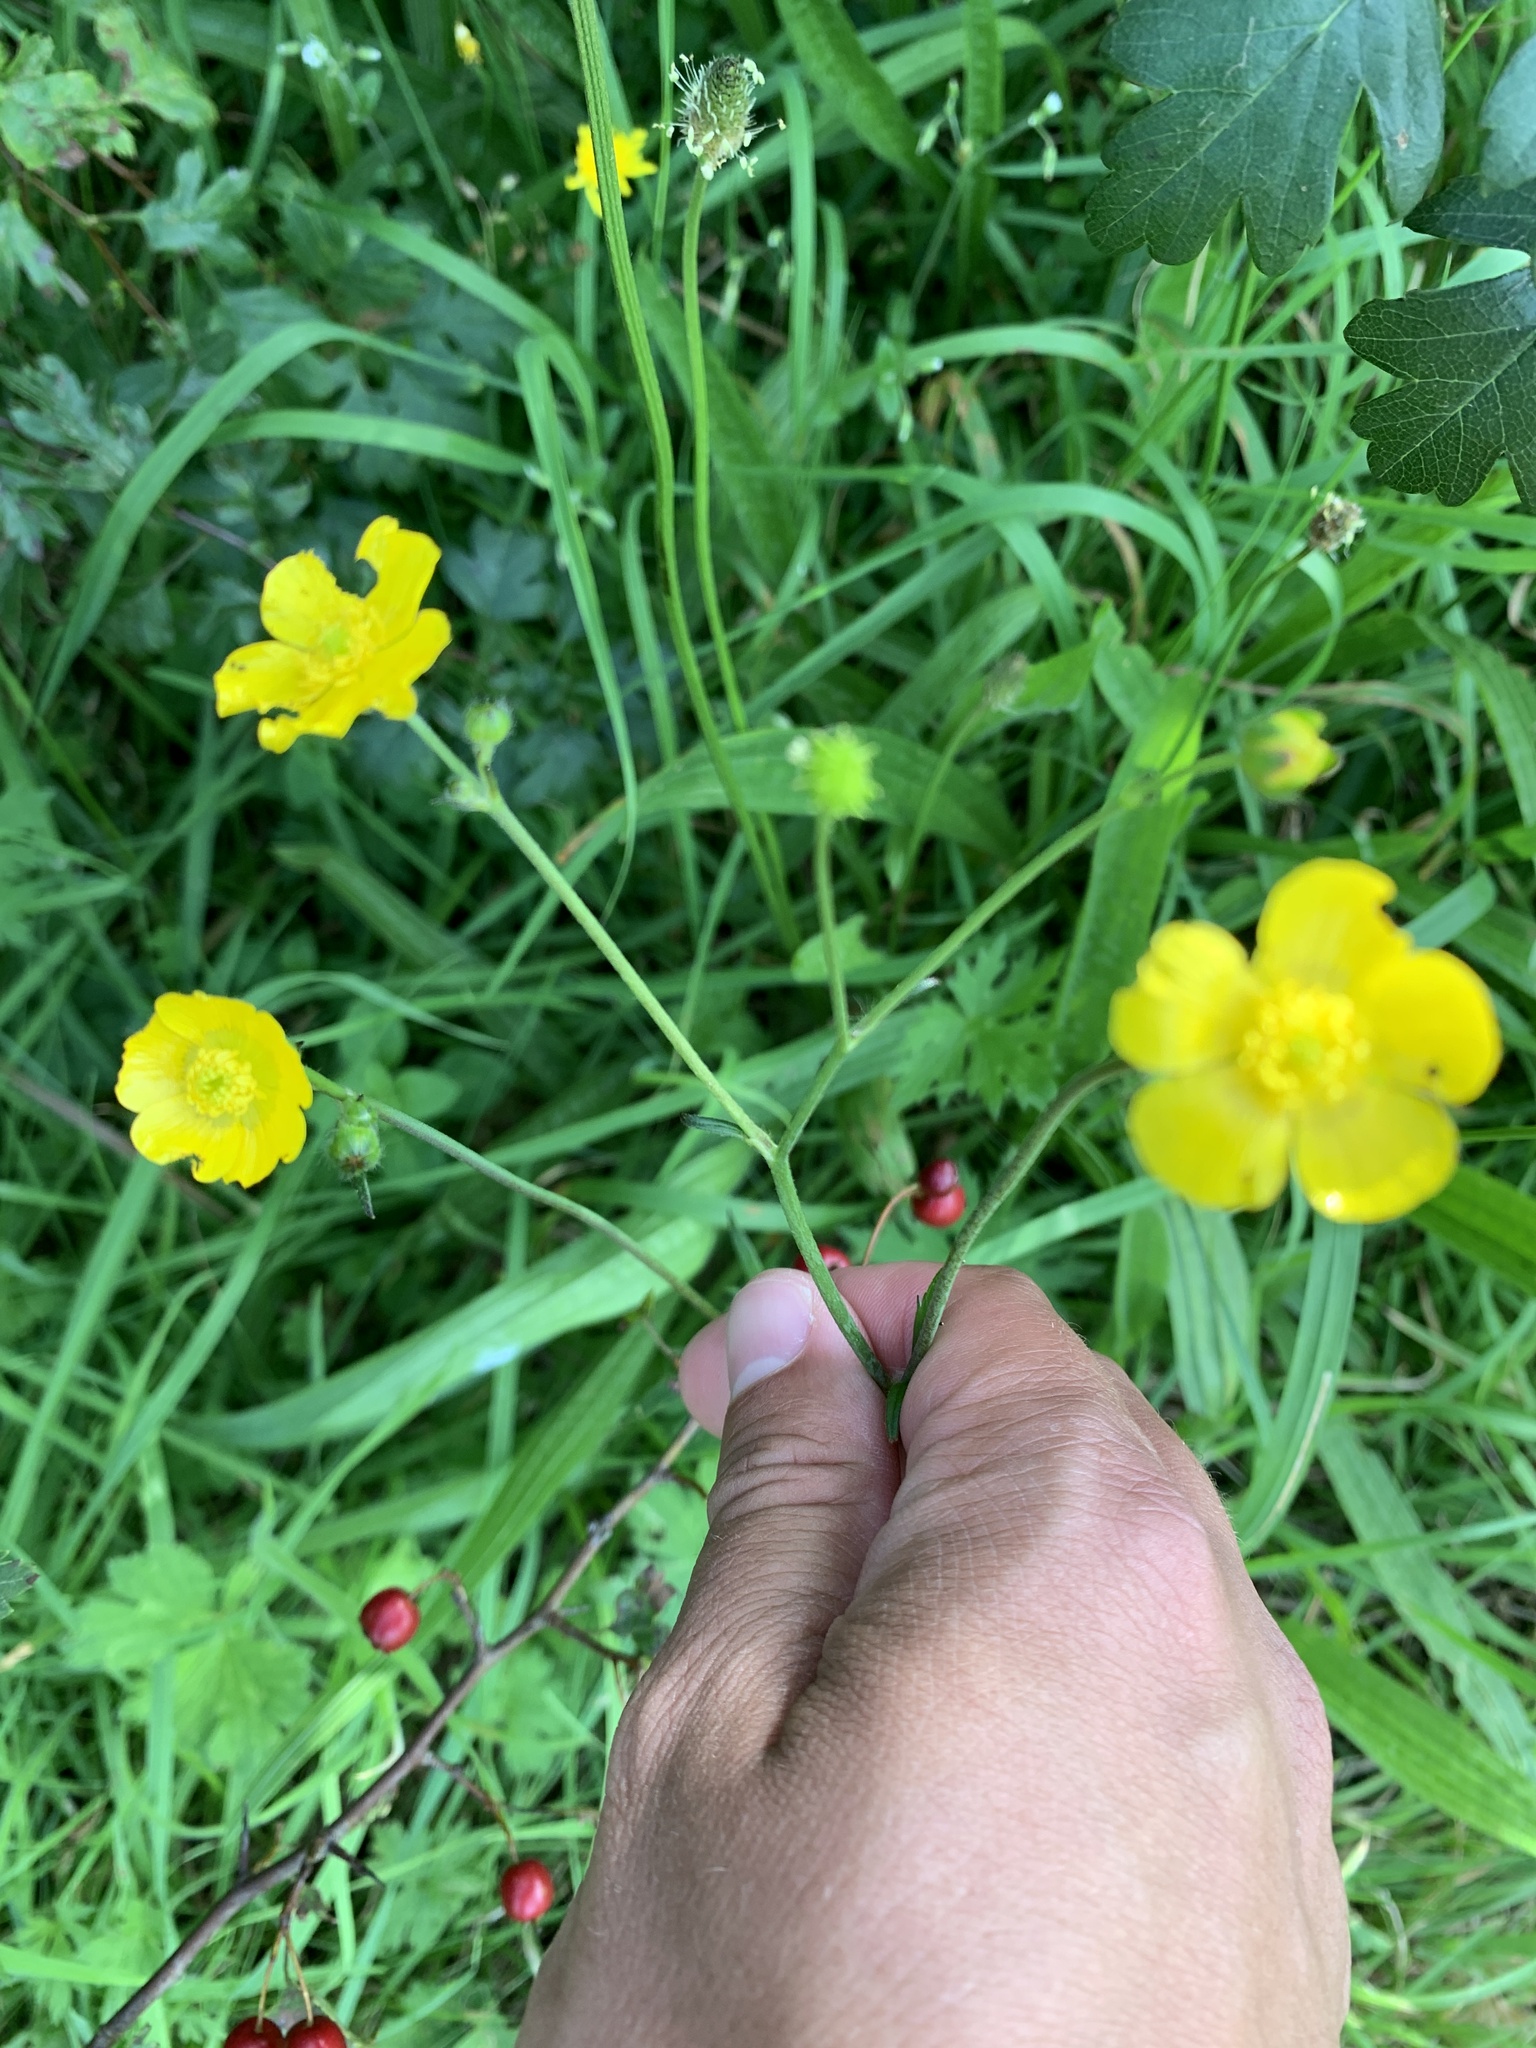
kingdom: Plantae
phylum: Tracheophyta
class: Magnoliopsida
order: Ranunculales
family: Ranunculaceae
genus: Ranunculus
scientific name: Ranunculus acris
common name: Meadow buttercup
